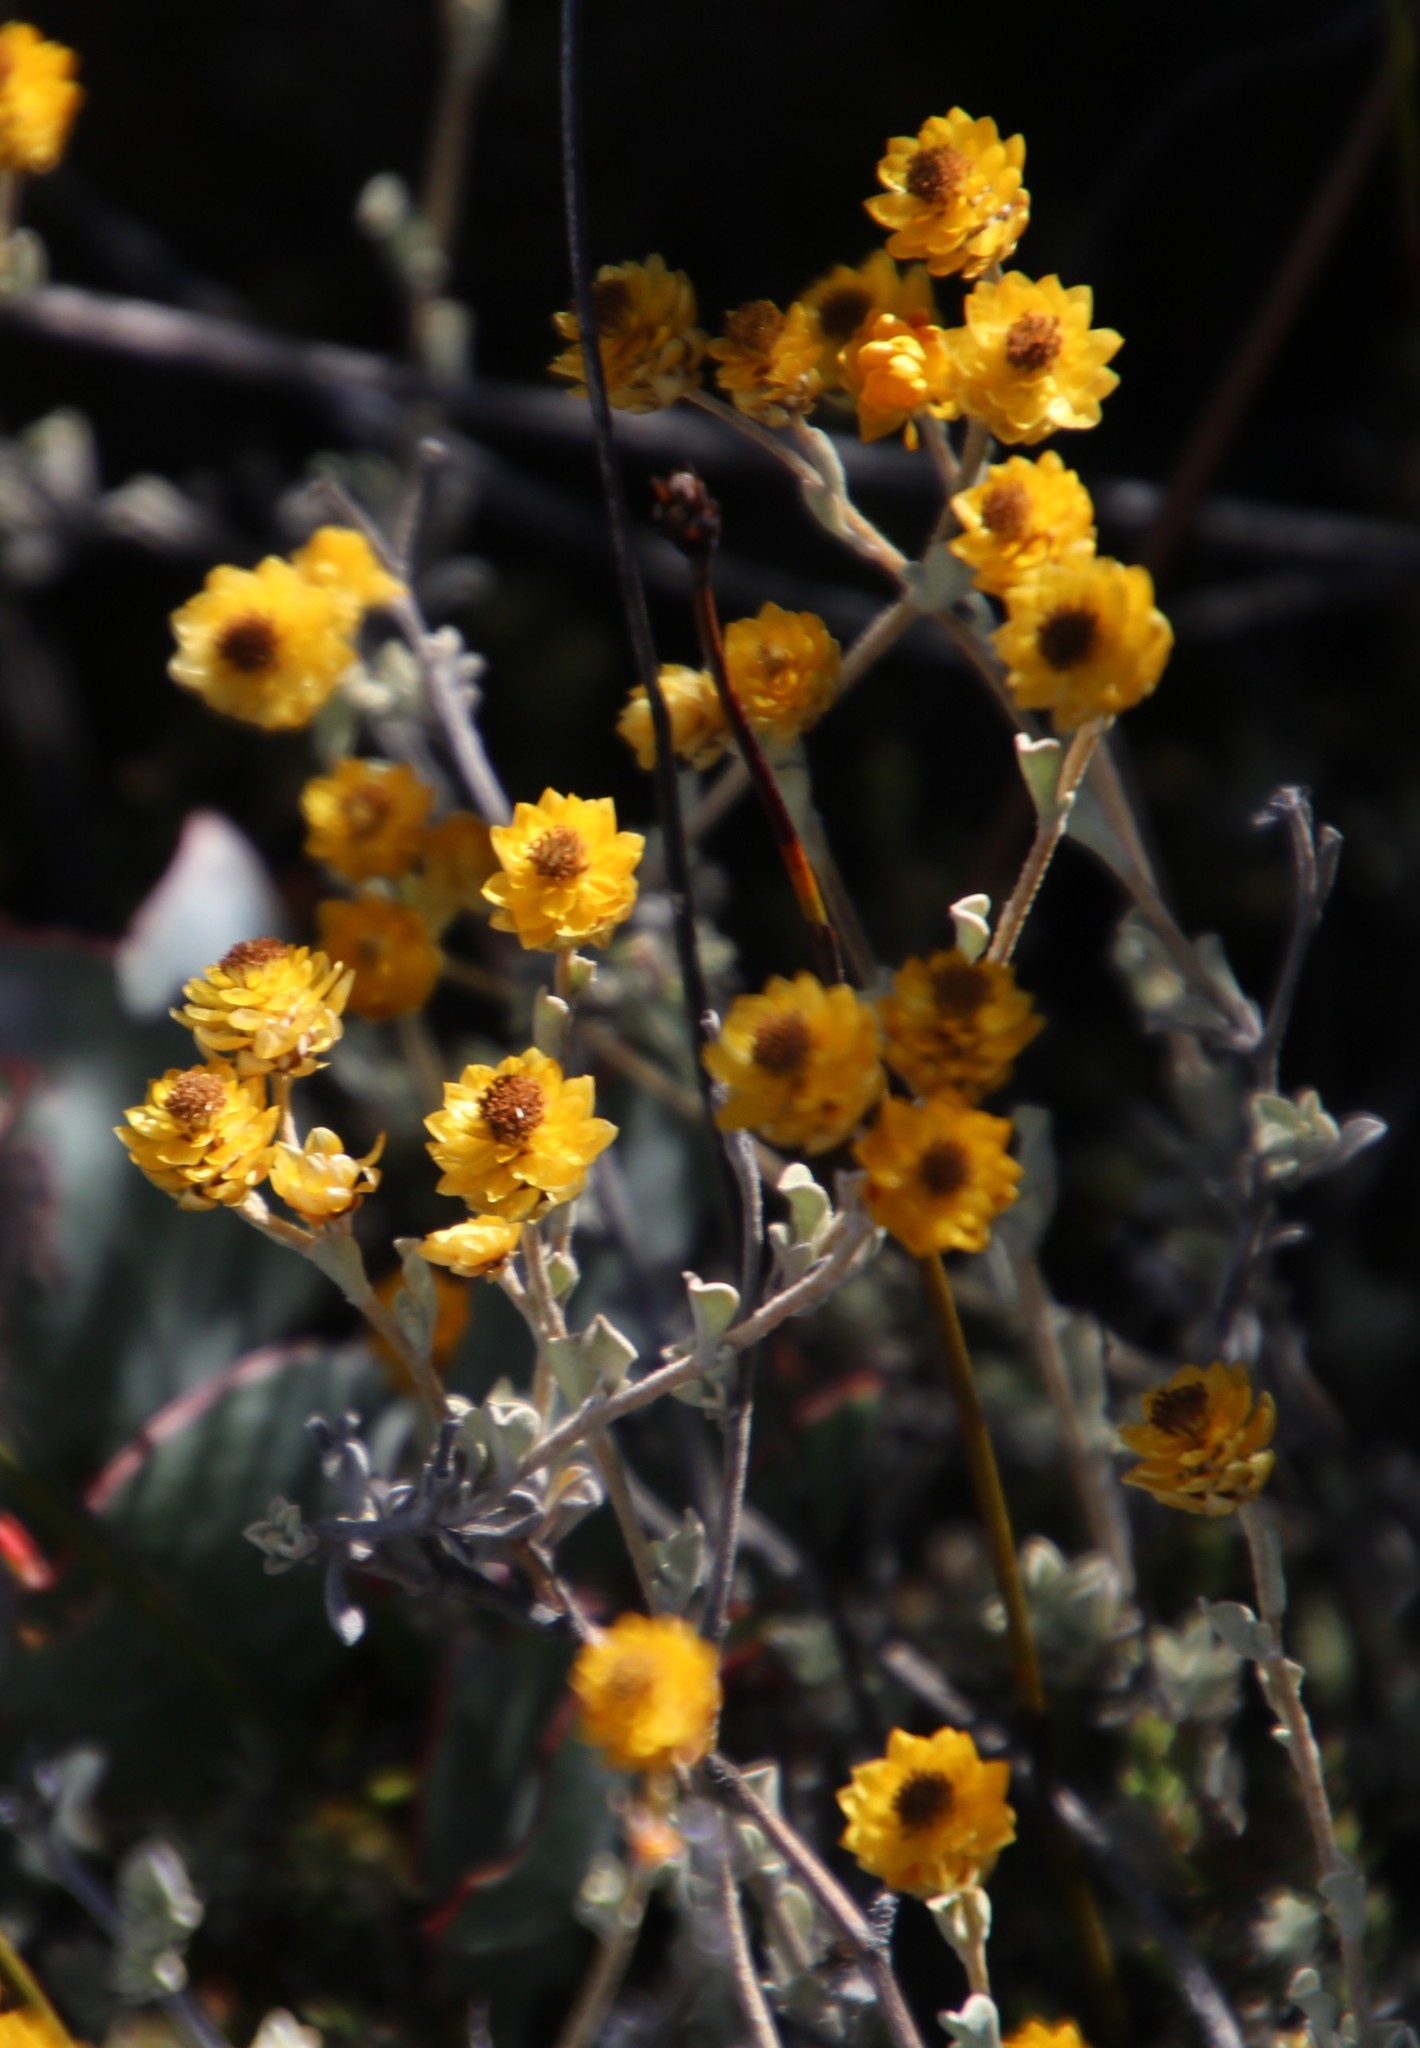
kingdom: Plantae
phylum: Tracheophyta
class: Magnoliopsida
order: Asterales
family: Asteraceae
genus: Helichrysum
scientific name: Helichrysum acrophilum
